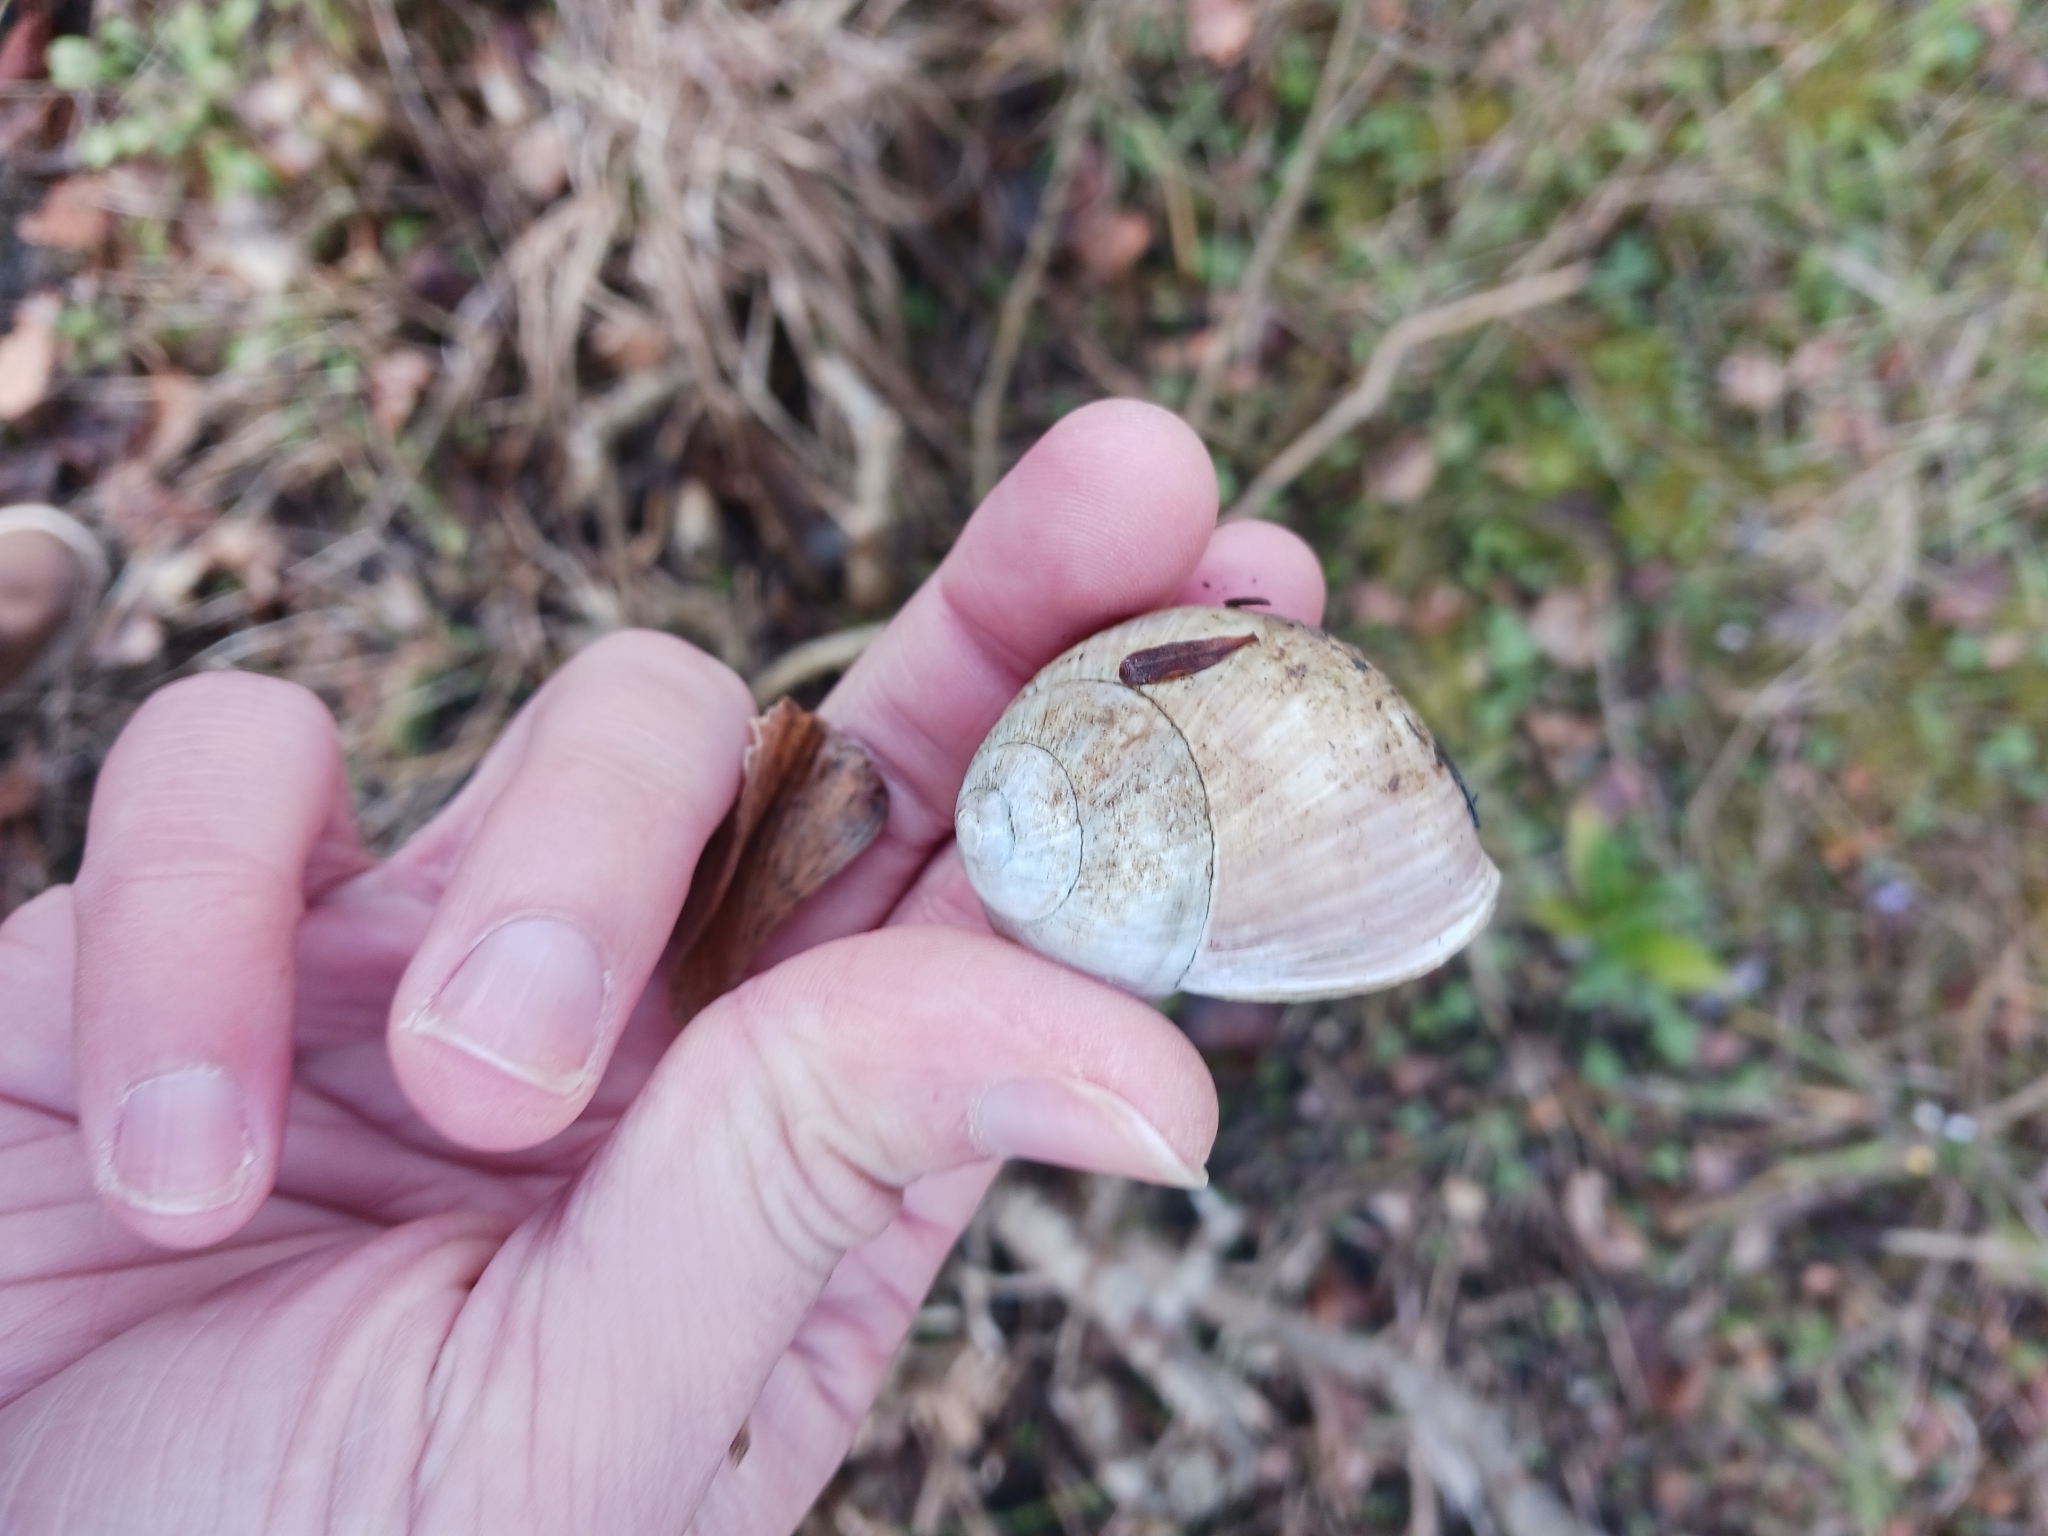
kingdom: Animalia
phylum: Mollusca
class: Gastropoda
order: Stylommatophora
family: Helicidae
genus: Helix
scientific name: Helix pomatia
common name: Roman snail
